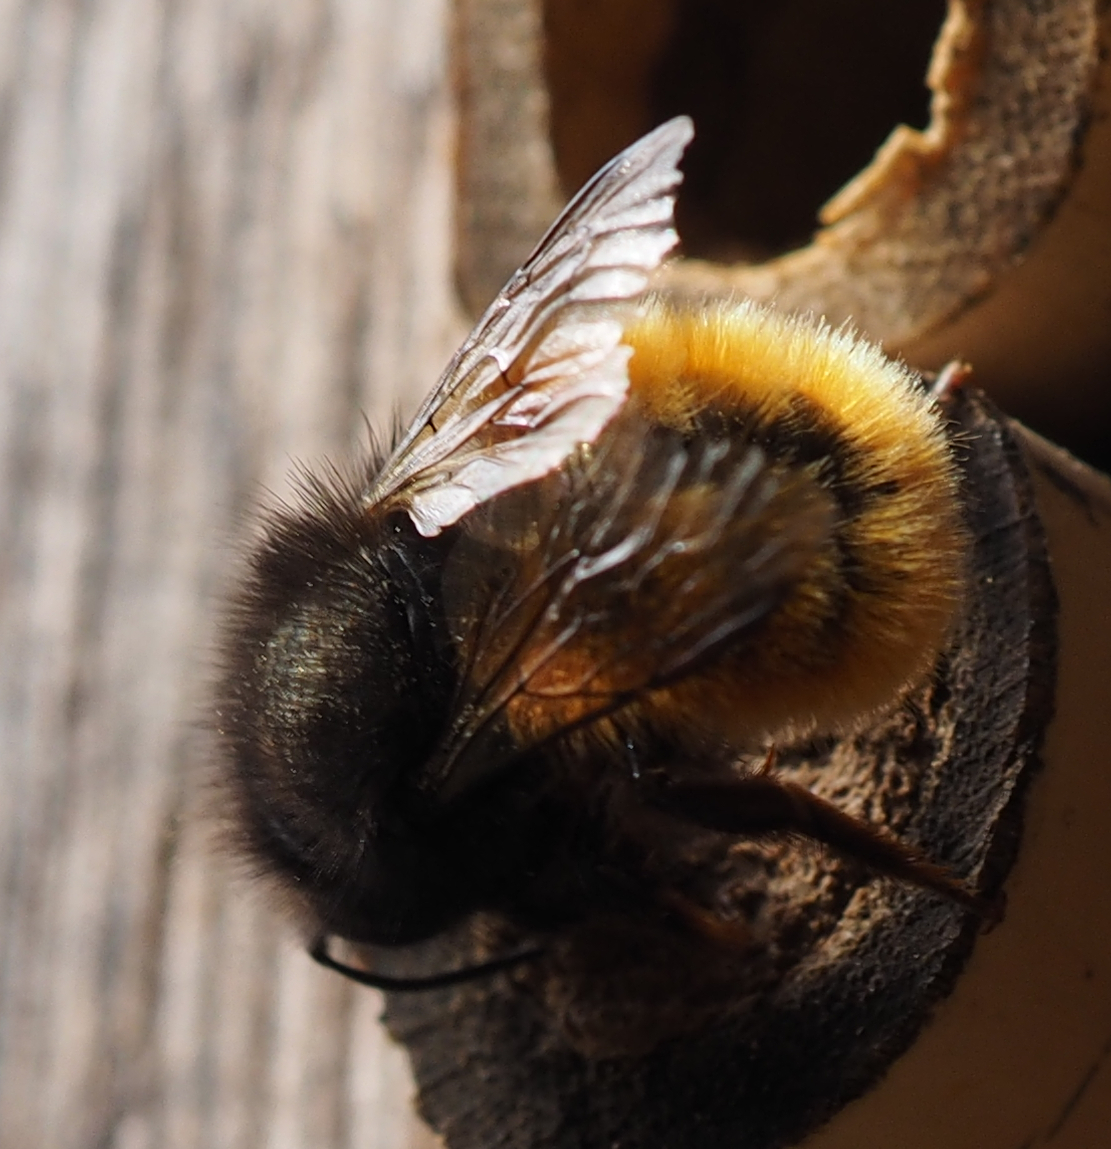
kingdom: Animalia
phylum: Arthropoda
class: Insecta
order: Hymenoptera
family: Megachilidae
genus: Osmia
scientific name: Osmia cornuta
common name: Mason bee
